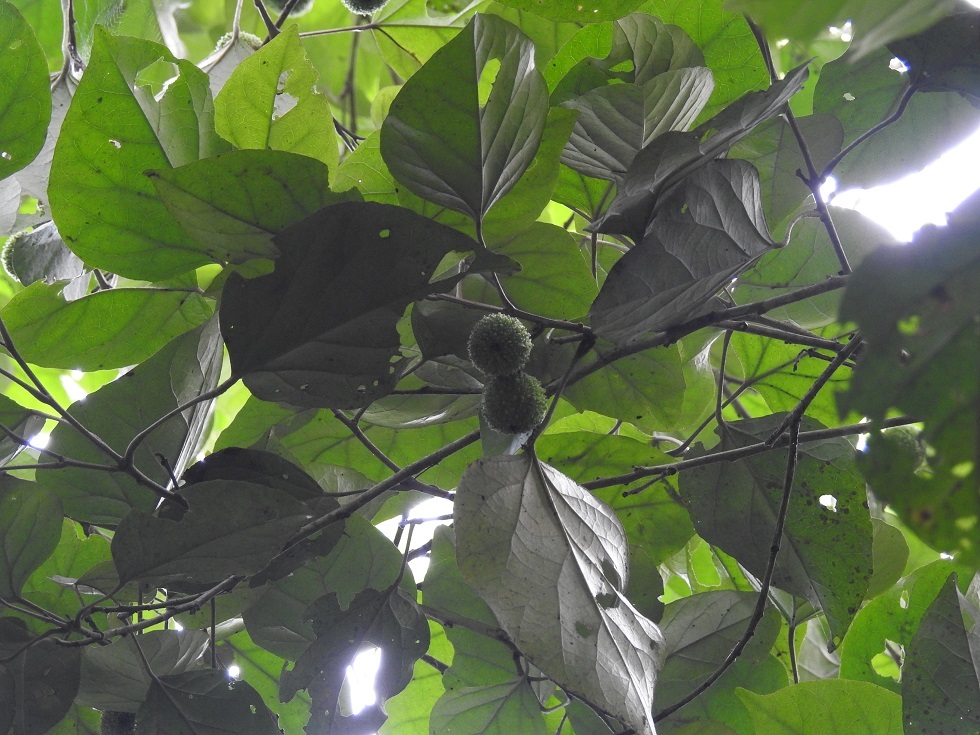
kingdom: Plantae
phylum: Tracheophyta
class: Magnoliopsida
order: Malpighiales
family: Euphorbiaceae
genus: Croton
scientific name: Croton guatemalensis
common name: Copalchi
